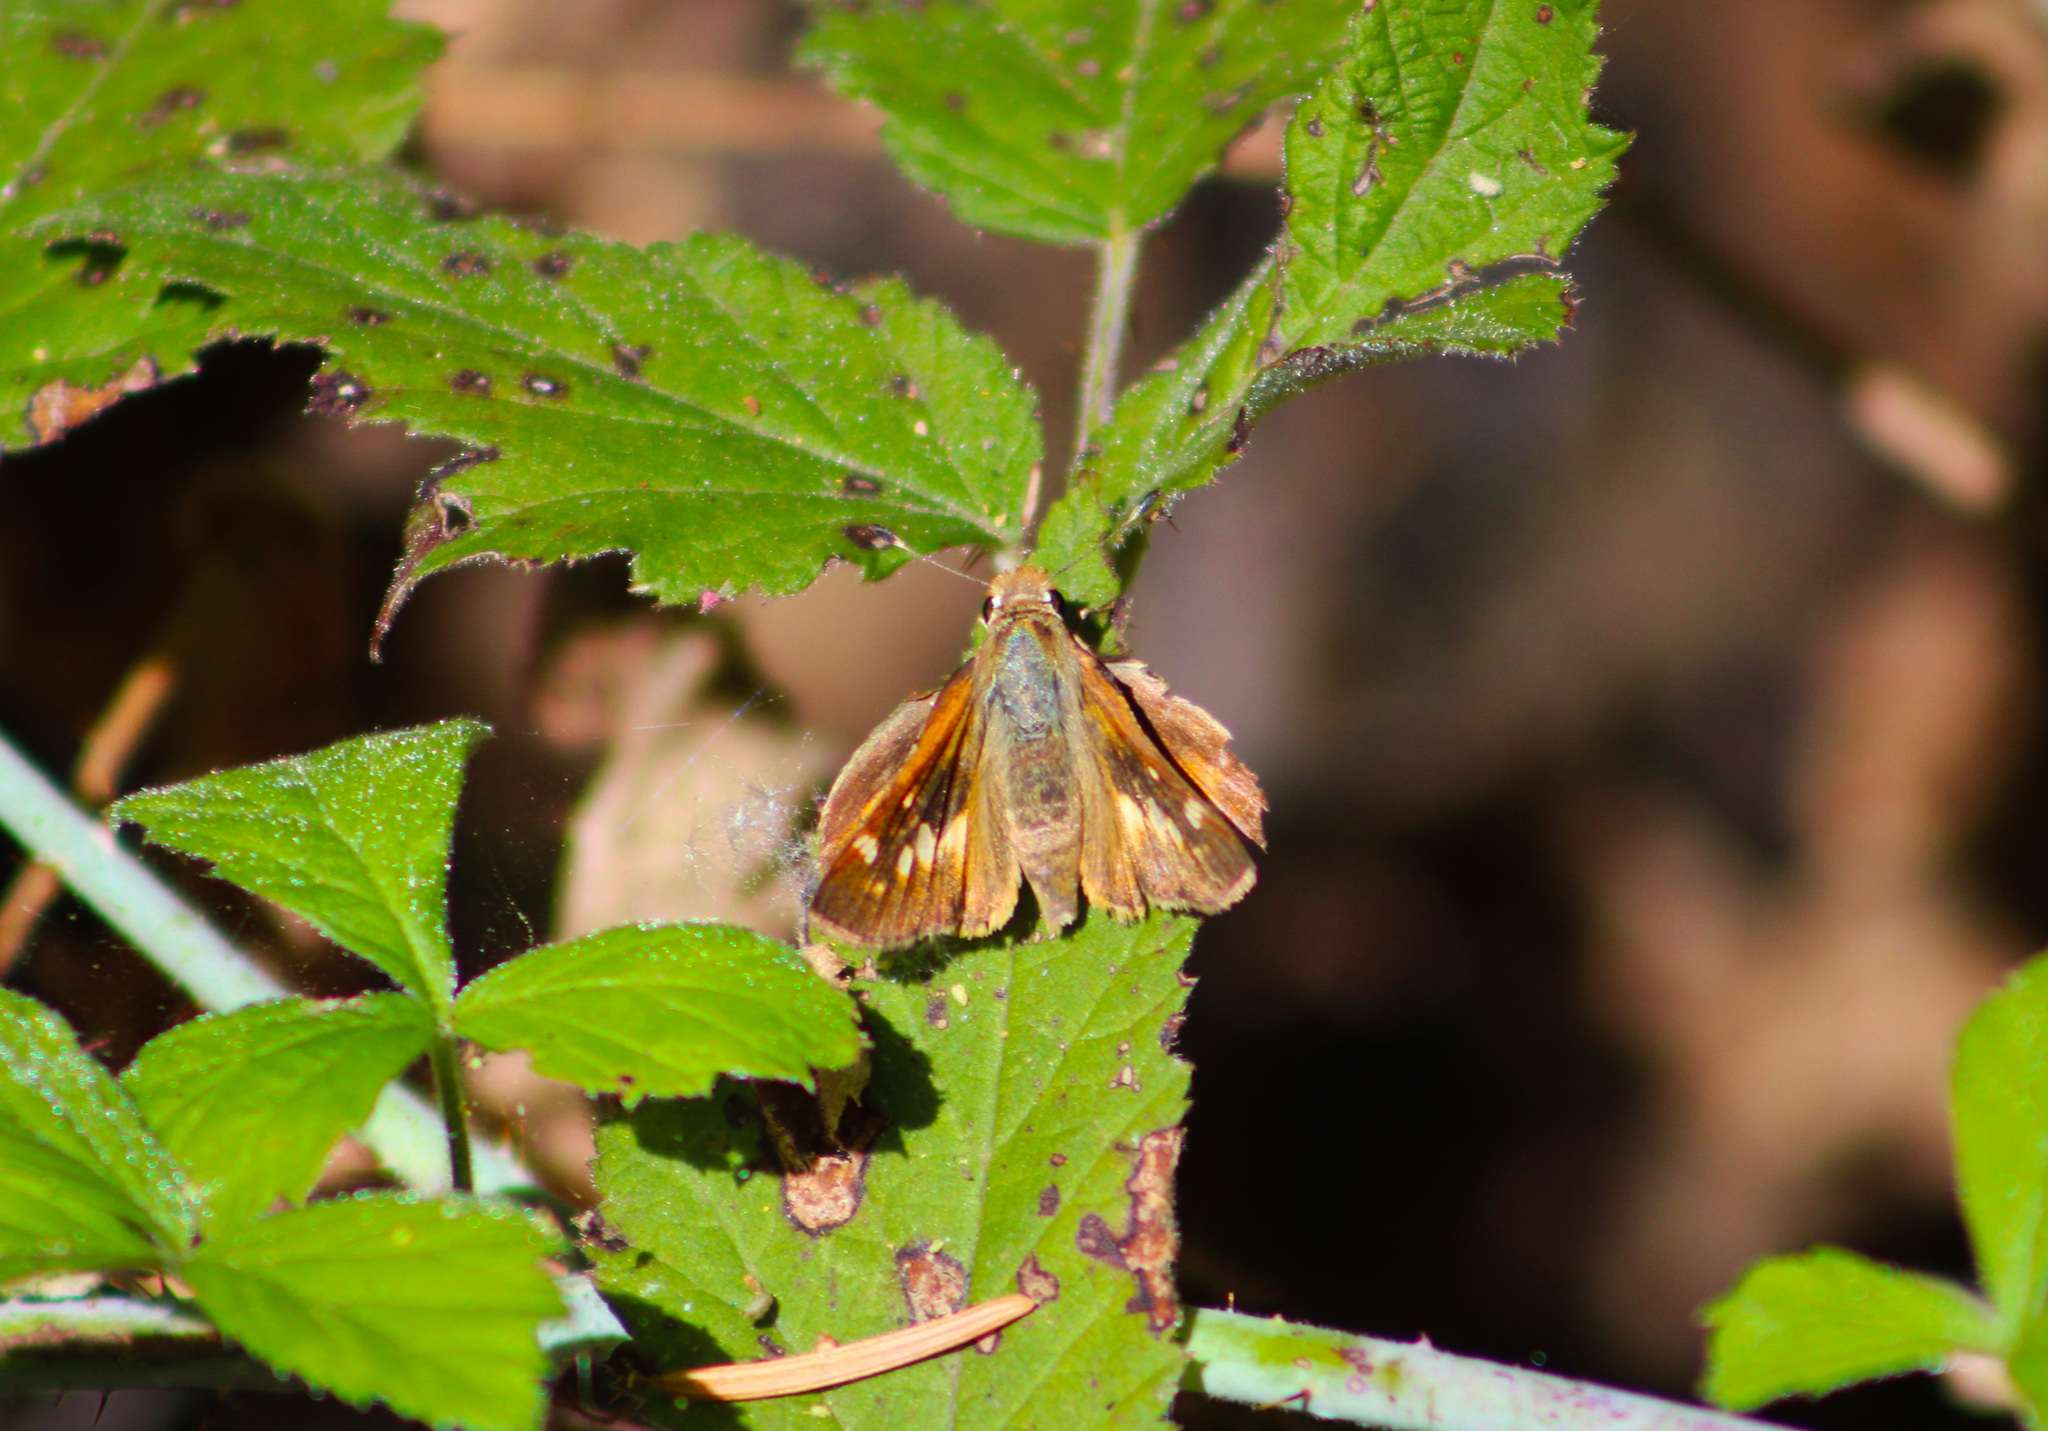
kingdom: Animalia
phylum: Arthropoda
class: Insecta
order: Lepidoptera
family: Hesperiidae
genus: Lon
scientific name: Lon melane
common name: Umber skipper
